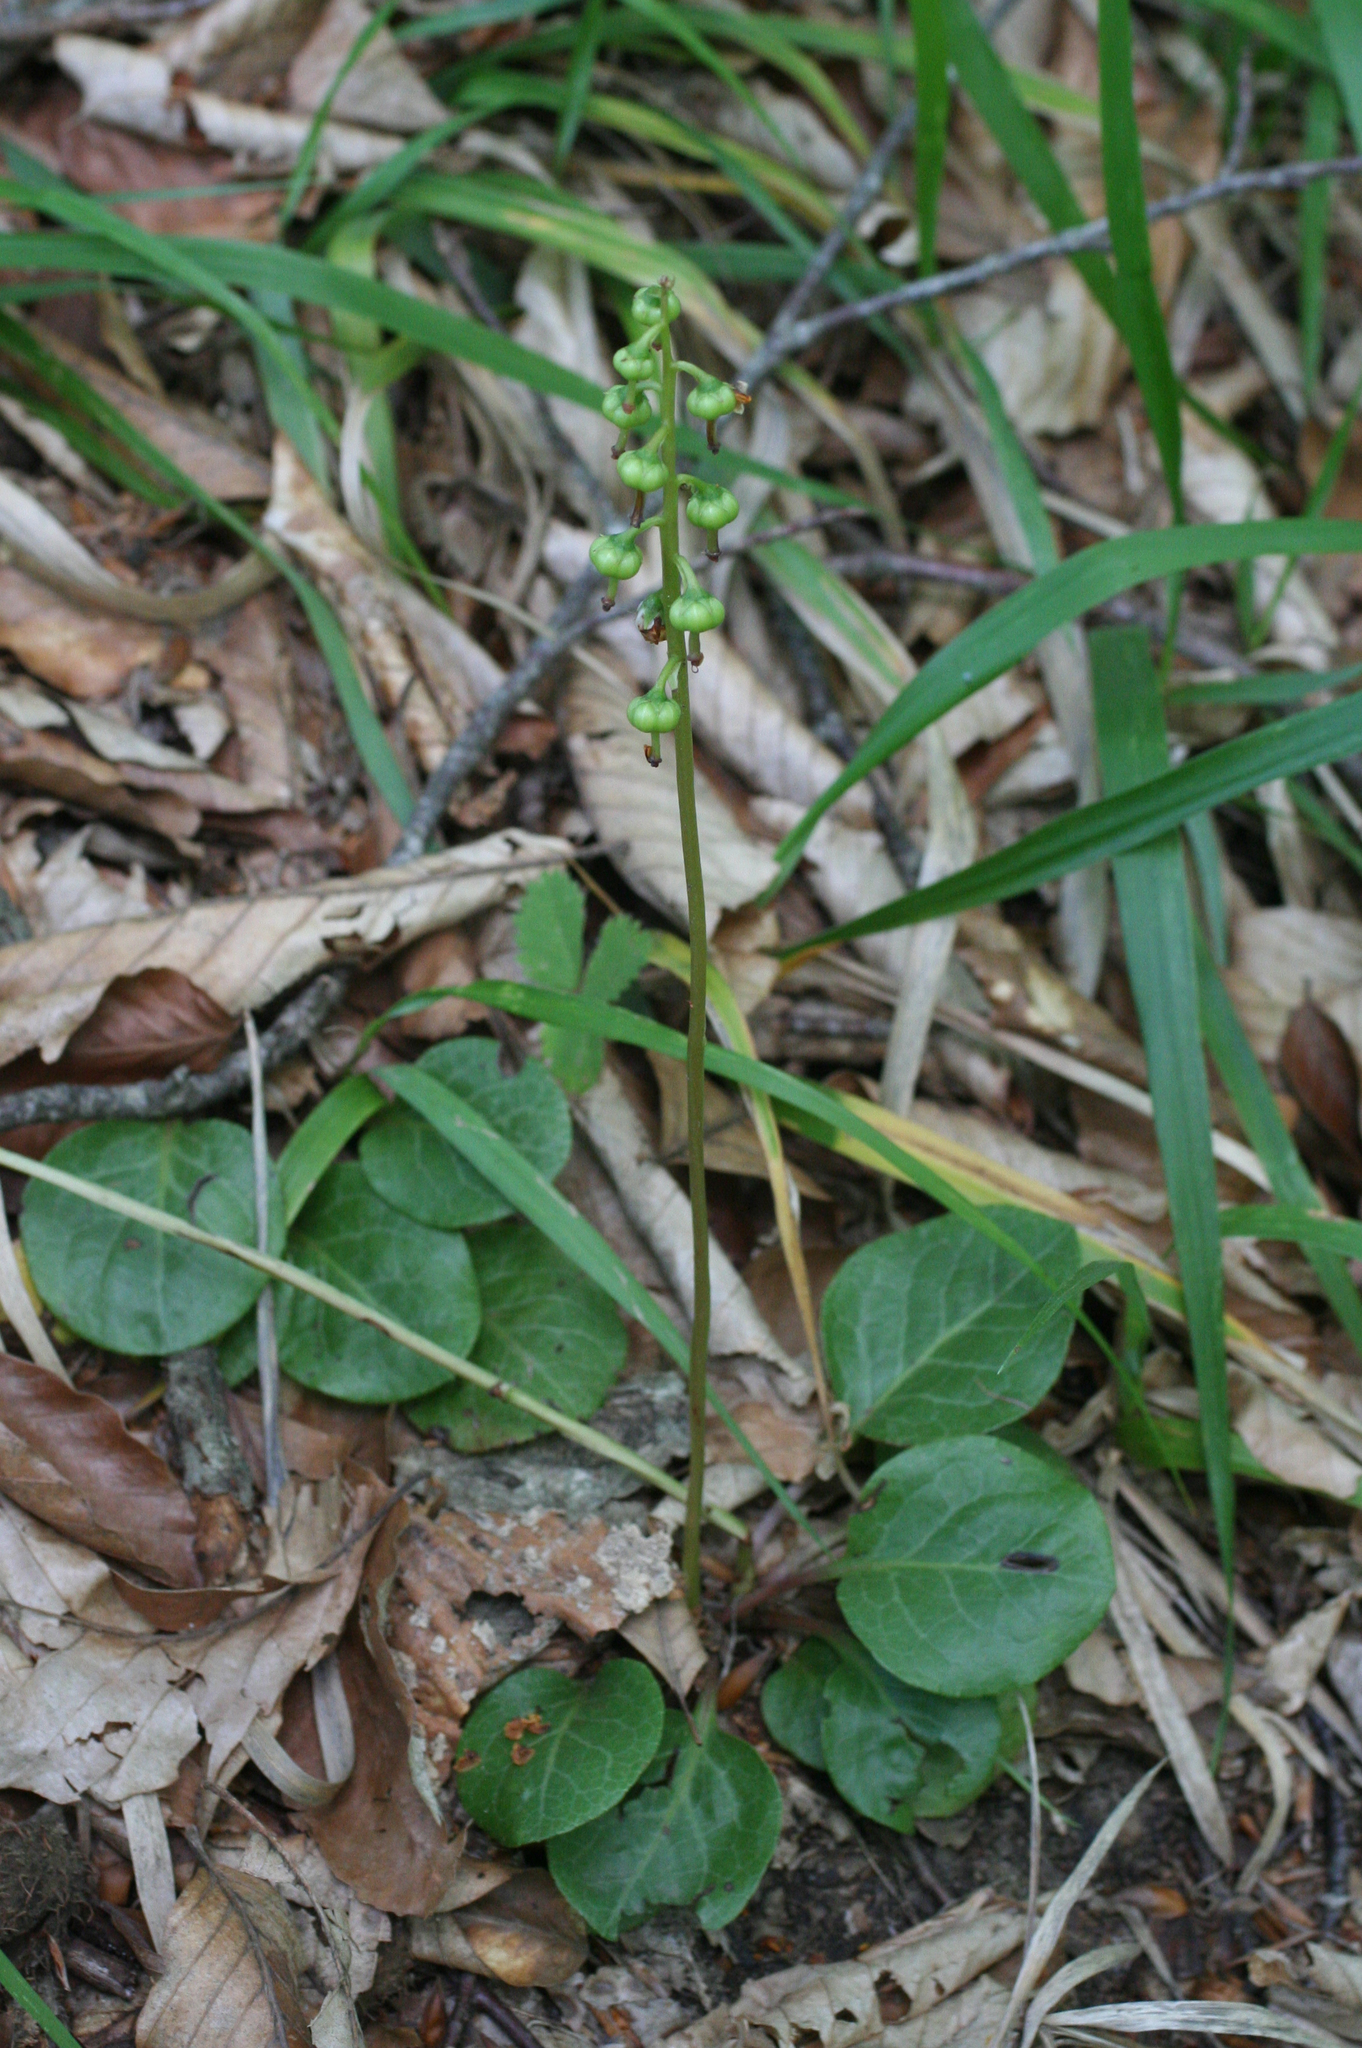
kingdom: Plantae
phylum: Tracheophyta
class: Magnoliopsida
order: Ericales
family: Ericaceae
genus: Pyrola
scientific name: Pyrola rotundifolia
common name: Round-leaved wintergreen
